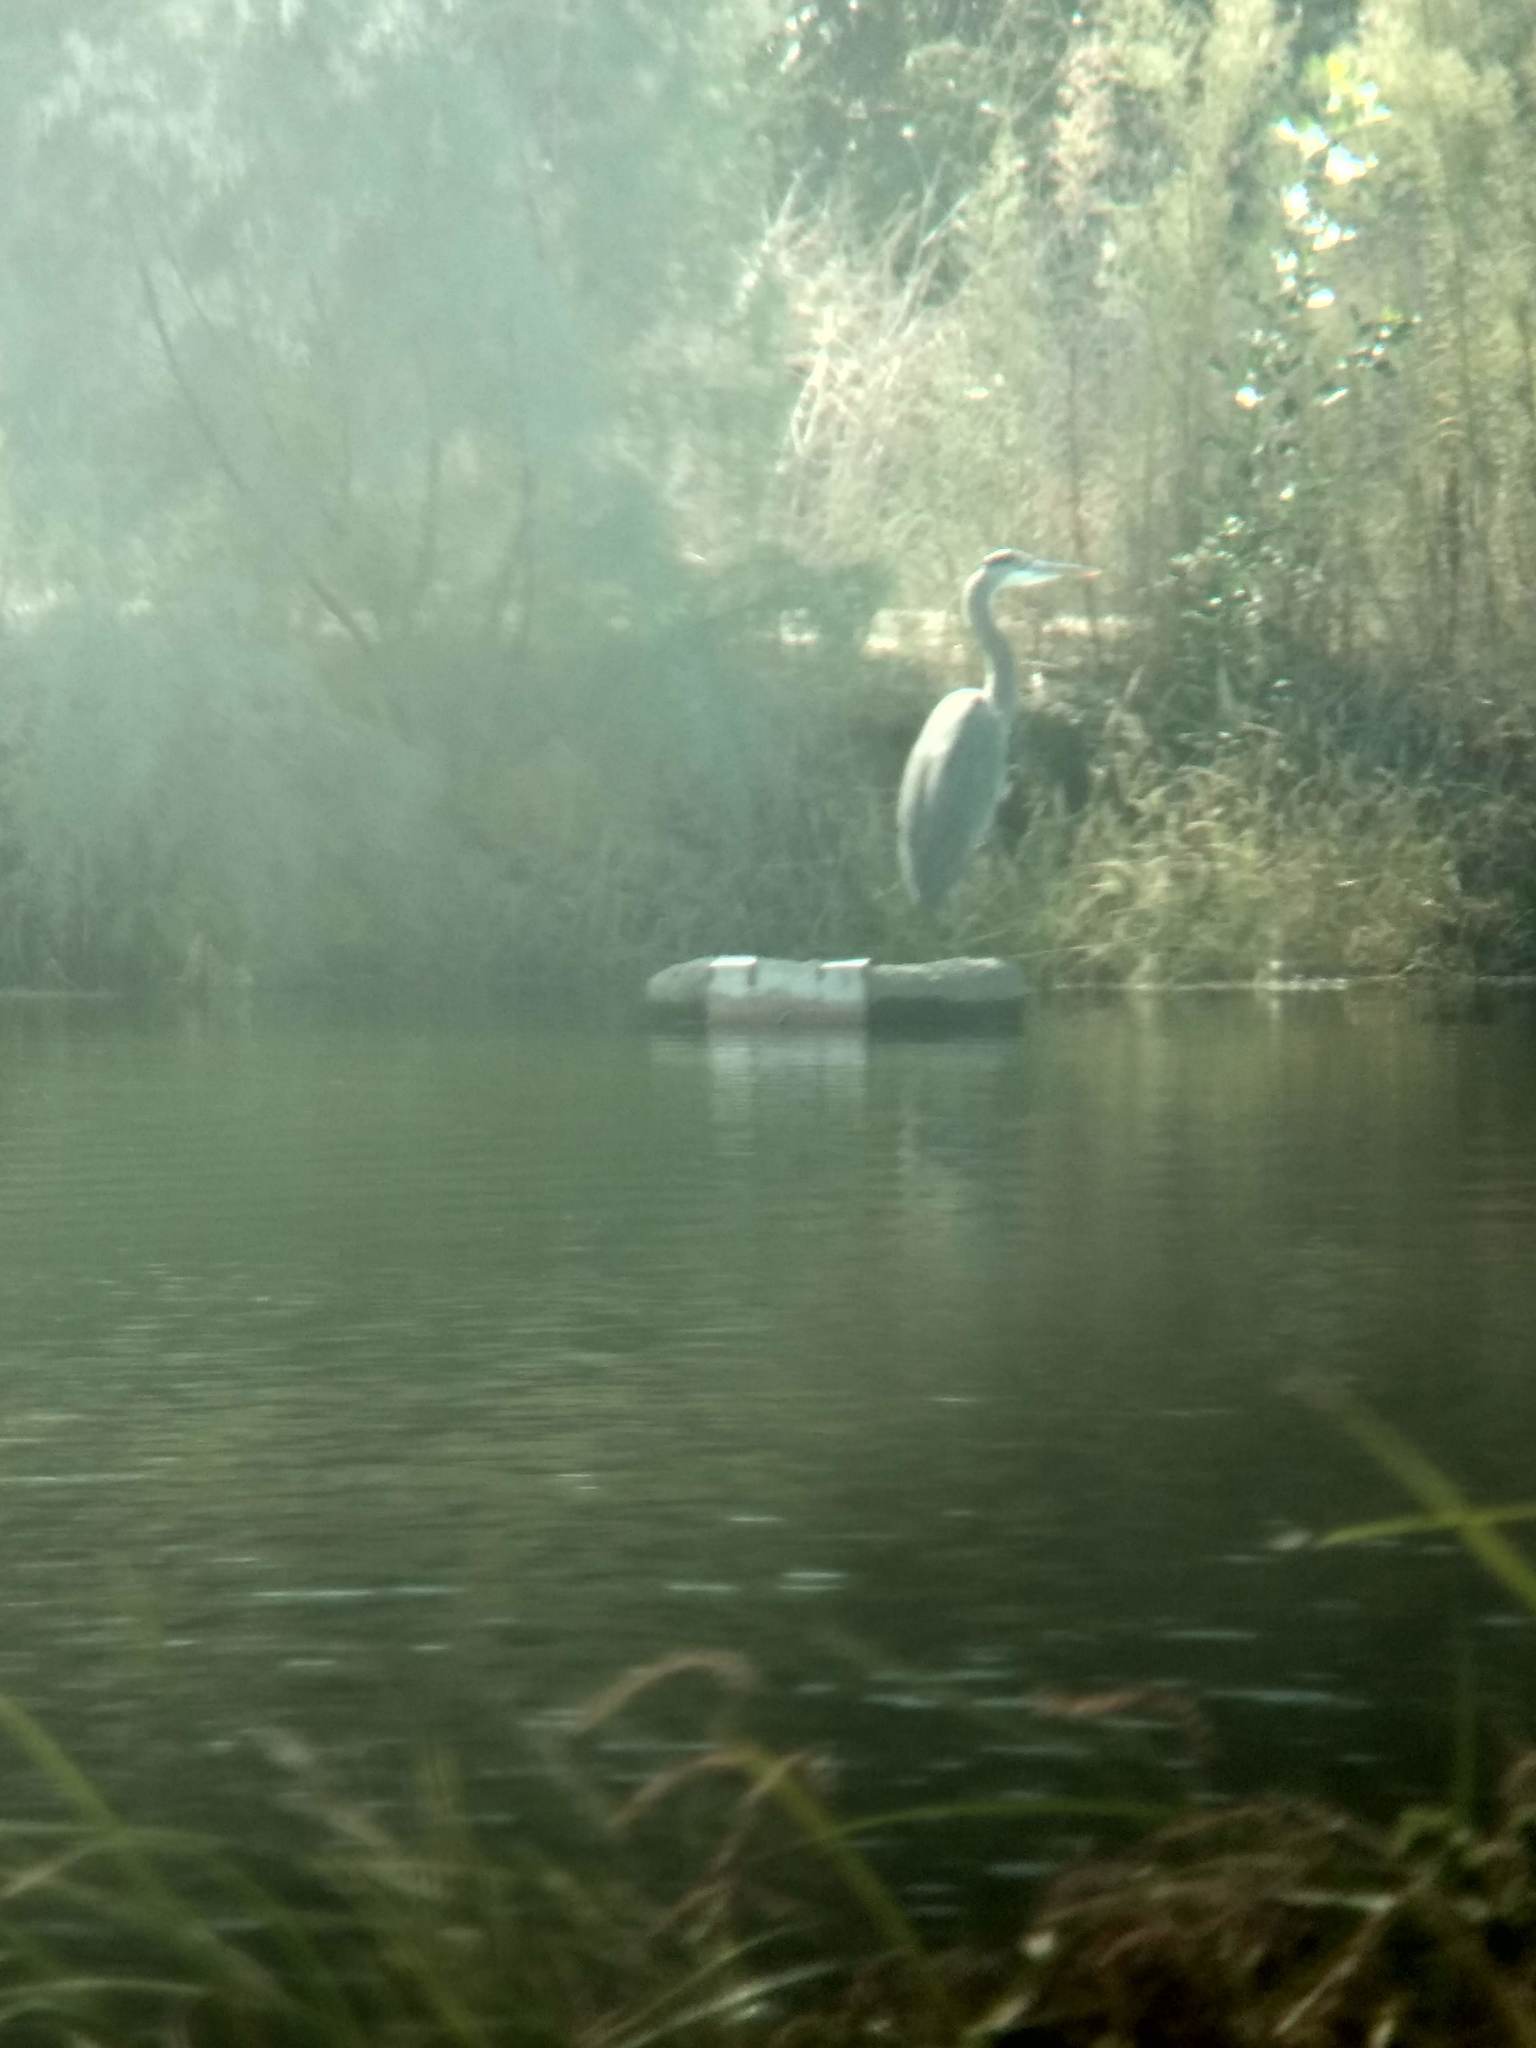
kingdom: Animalia
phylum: Chordata
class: Aves
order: Pelecaniformes
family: Ardeidae
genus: Ardea
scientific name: Ardea herodias
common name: Great blue heron
